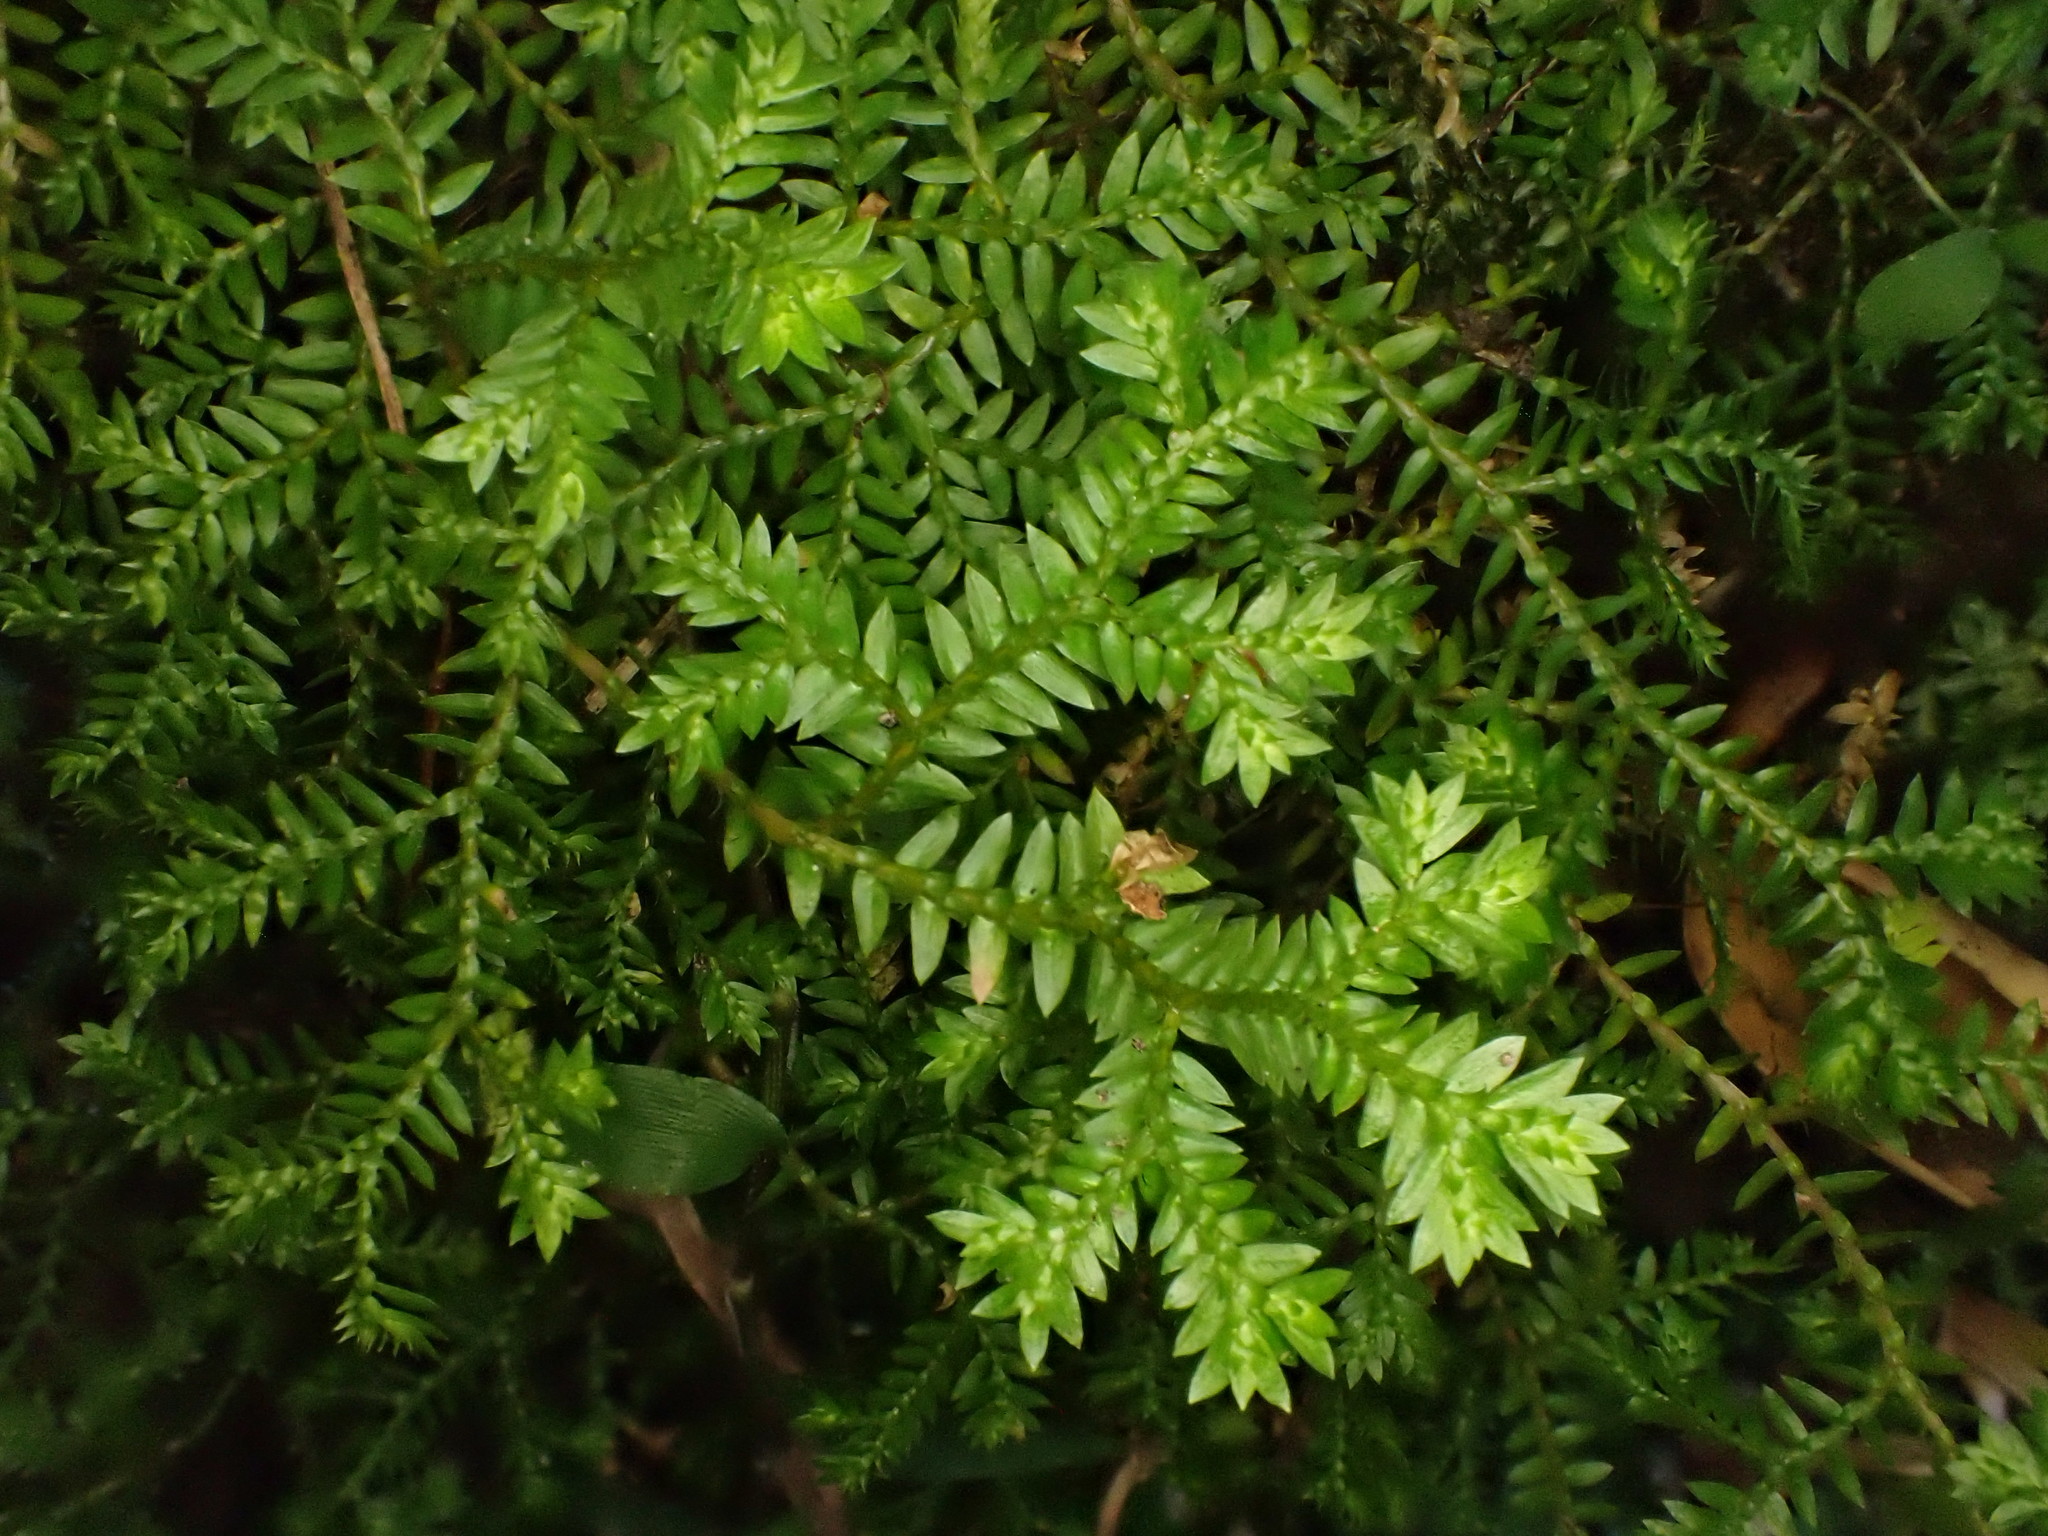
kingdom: Plantae
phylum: Tracheophyta
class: Lycopodiopsida
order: Selaginellales
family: Selaginellaceae
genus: Selaginella
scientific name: Selaginella kraussiana
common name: Krauss' spikemoss
